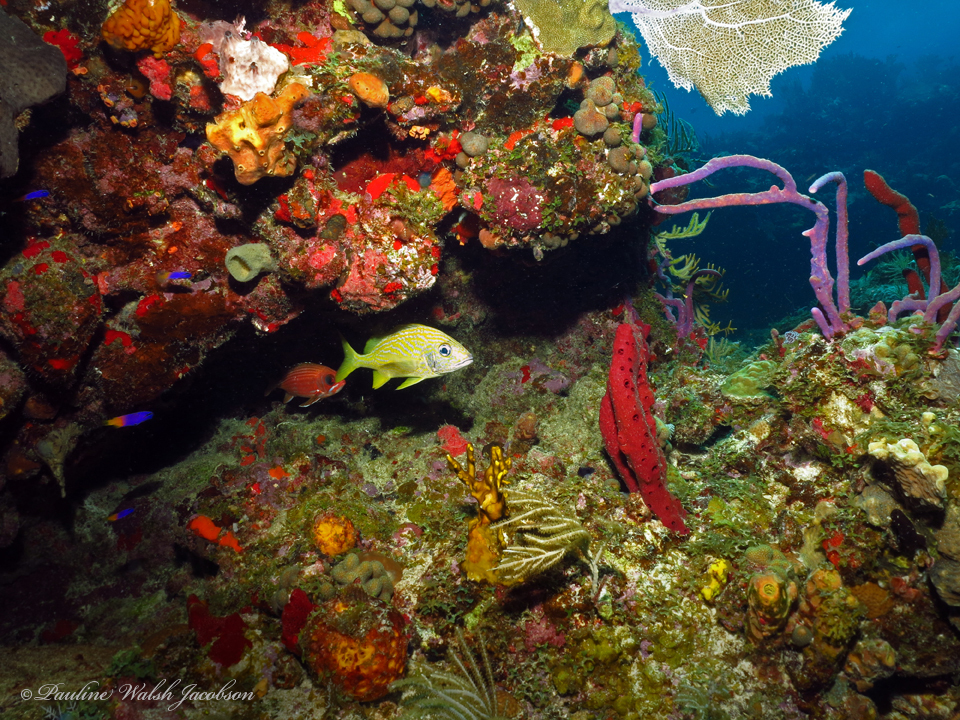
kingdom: Animalia
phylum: Chordata
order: Perciformes
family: Haemulidae
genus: Haemulon
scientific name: Haemulon flavolineatum
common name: French grunt
